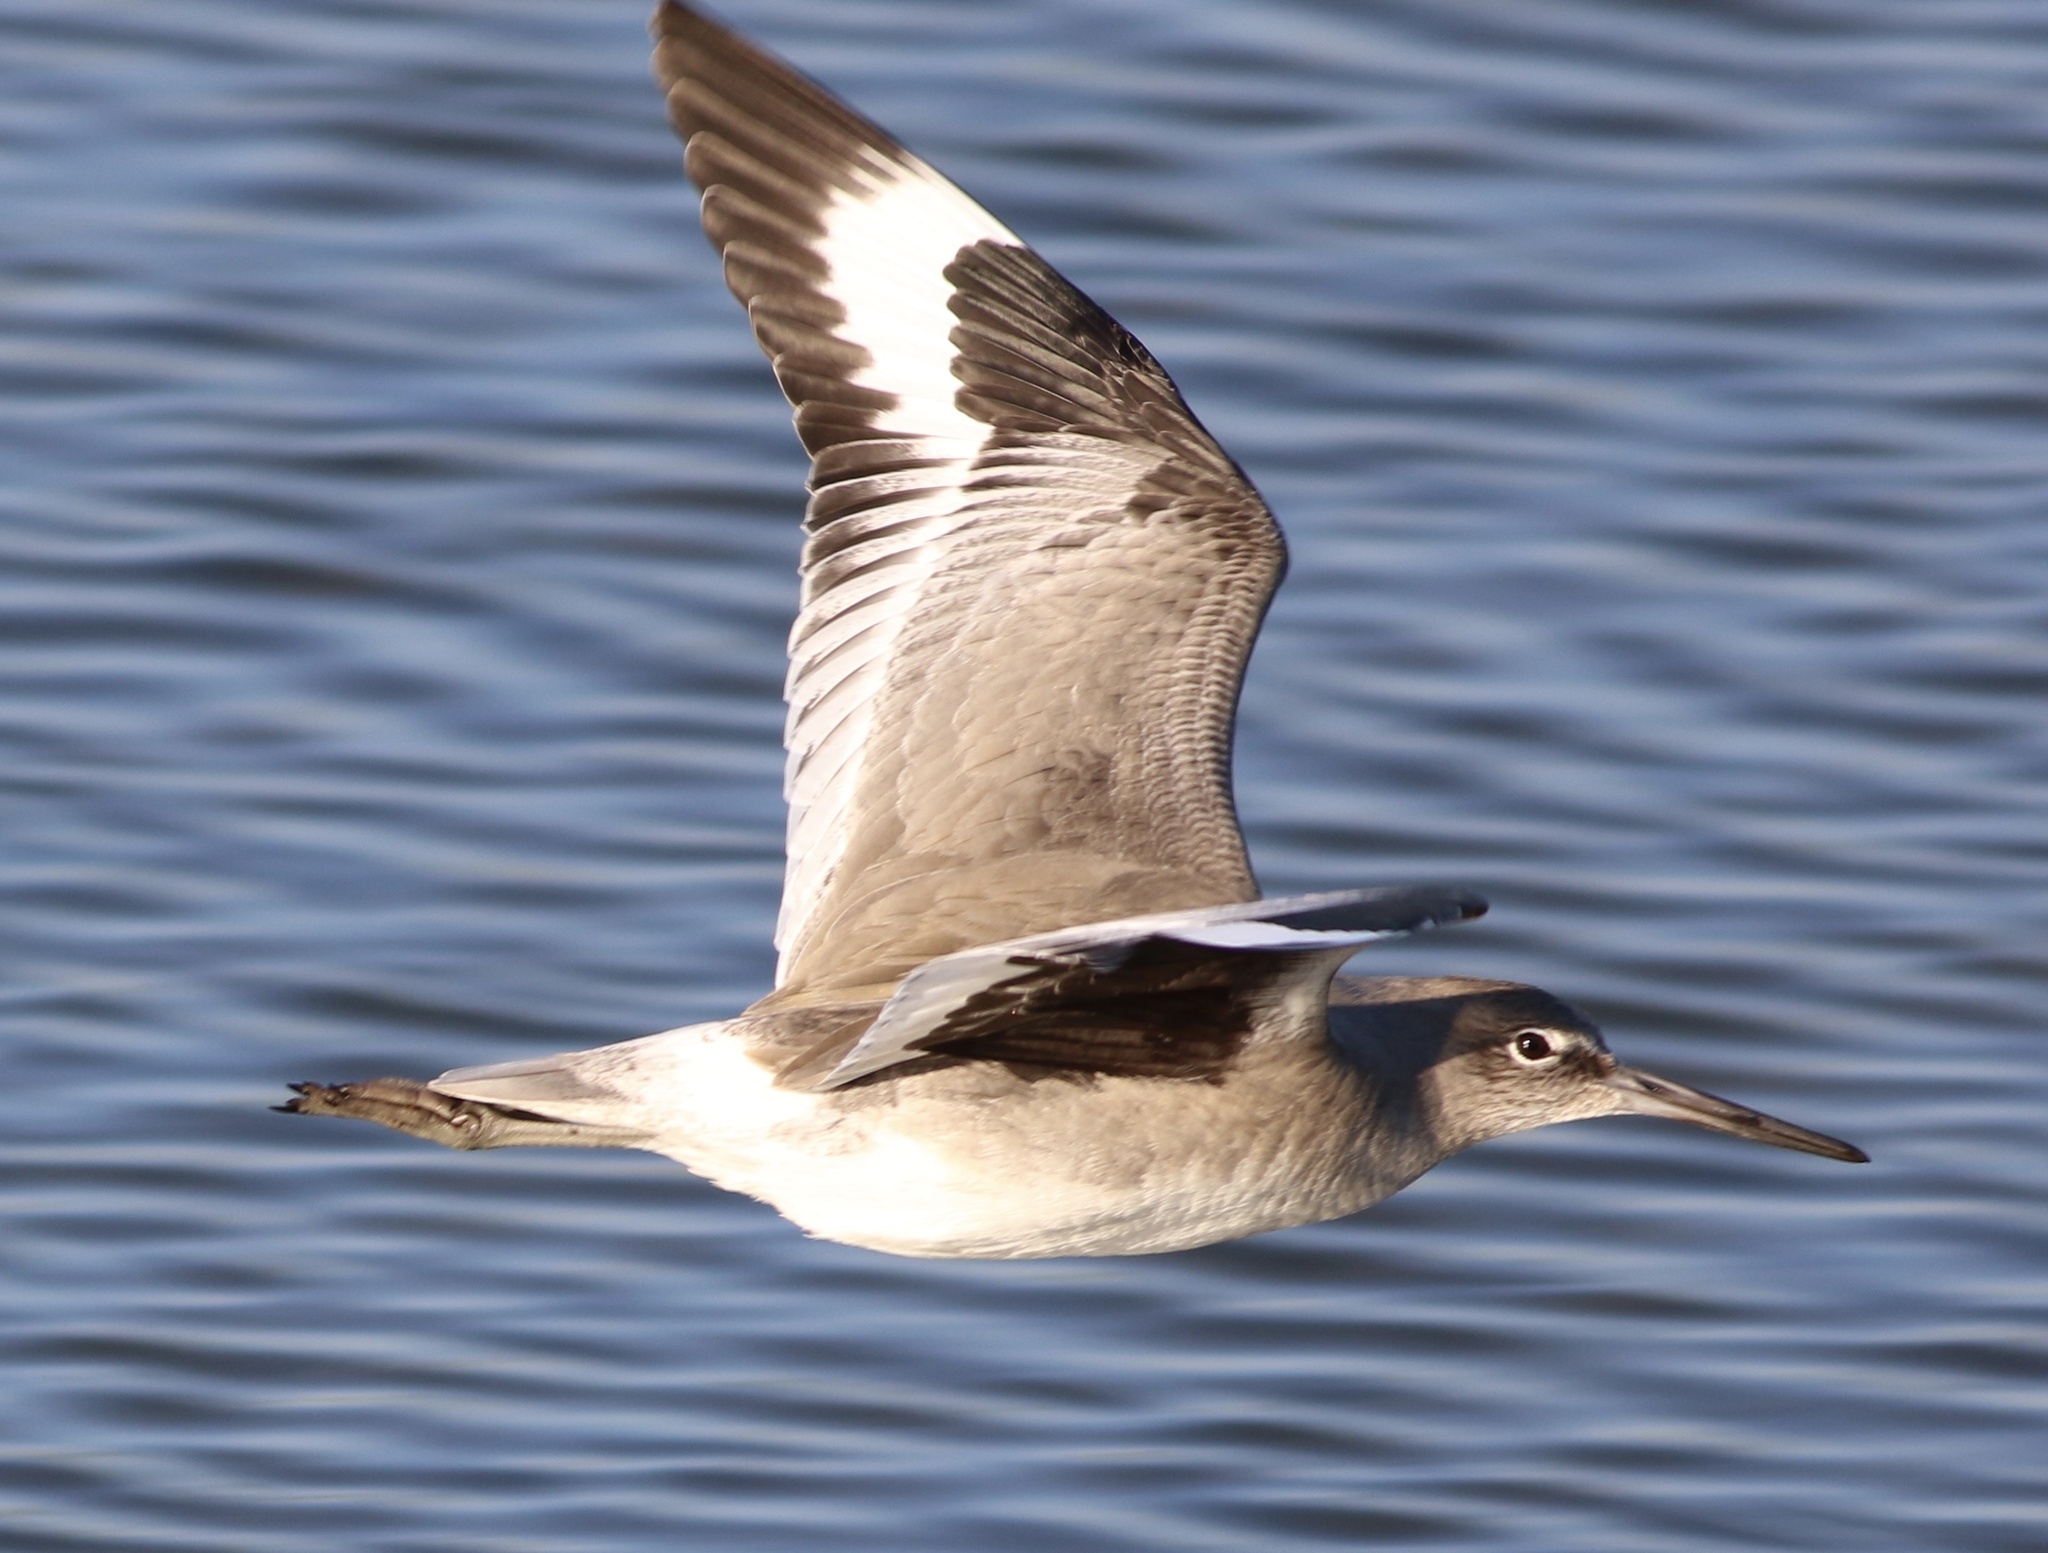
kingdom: Animalia
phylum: Chordata
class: Aves
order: Charadriiformes
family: Scolopacidae
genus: Tringa
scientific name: Tringa semipalmata
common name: Willet
